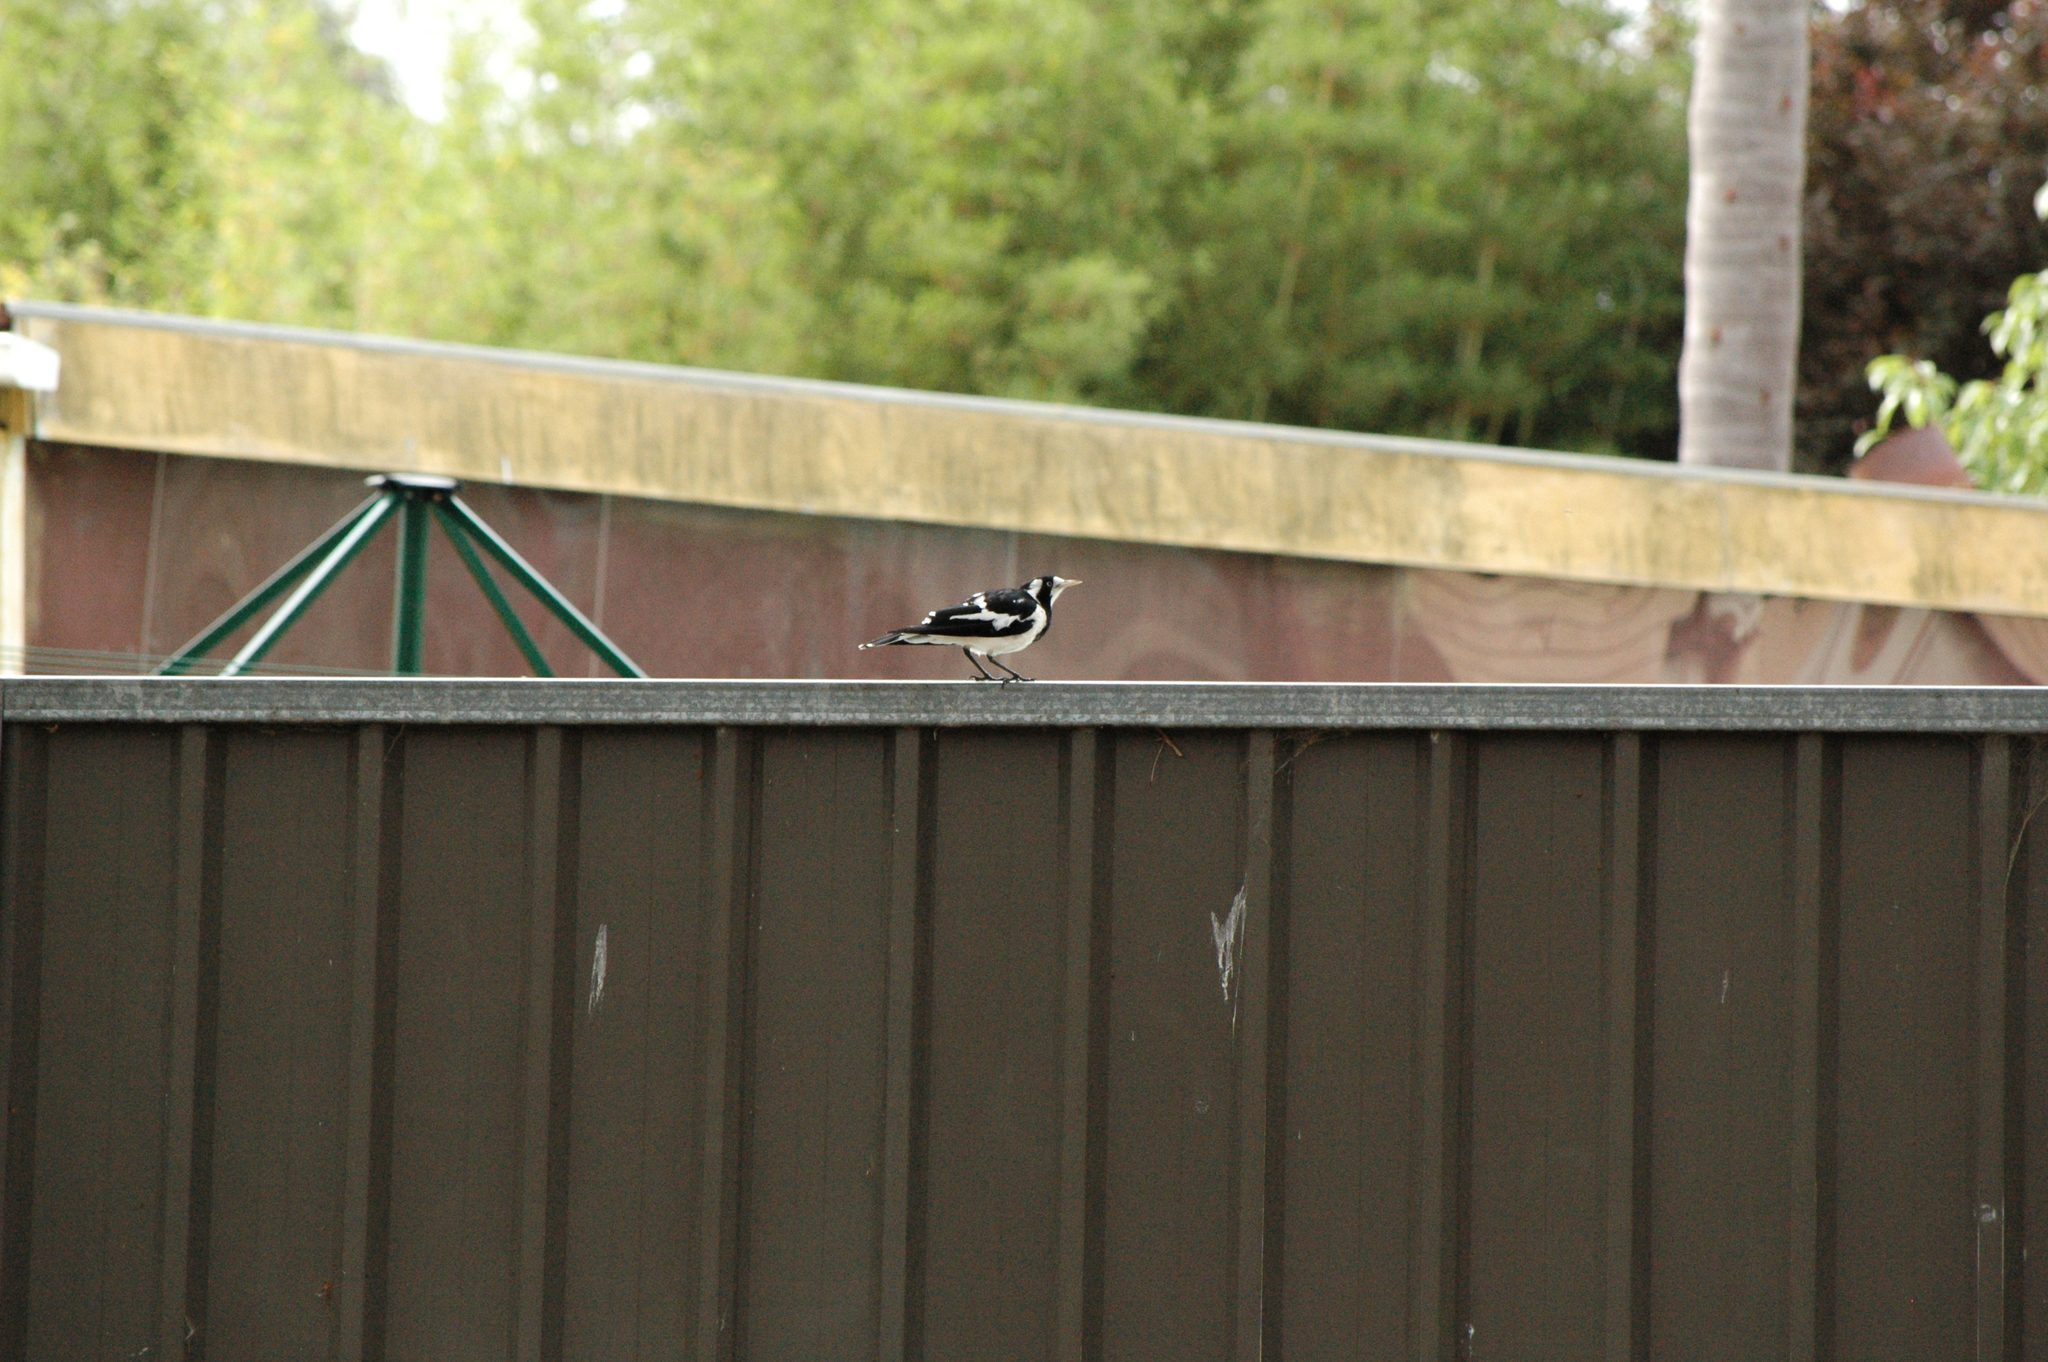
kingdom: Animalia
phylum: Chordata
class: Aves
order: Passeriformes
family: Monarchidae
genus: Grallina
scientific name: Grallina cyanoleuca
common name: Magpie-lark
